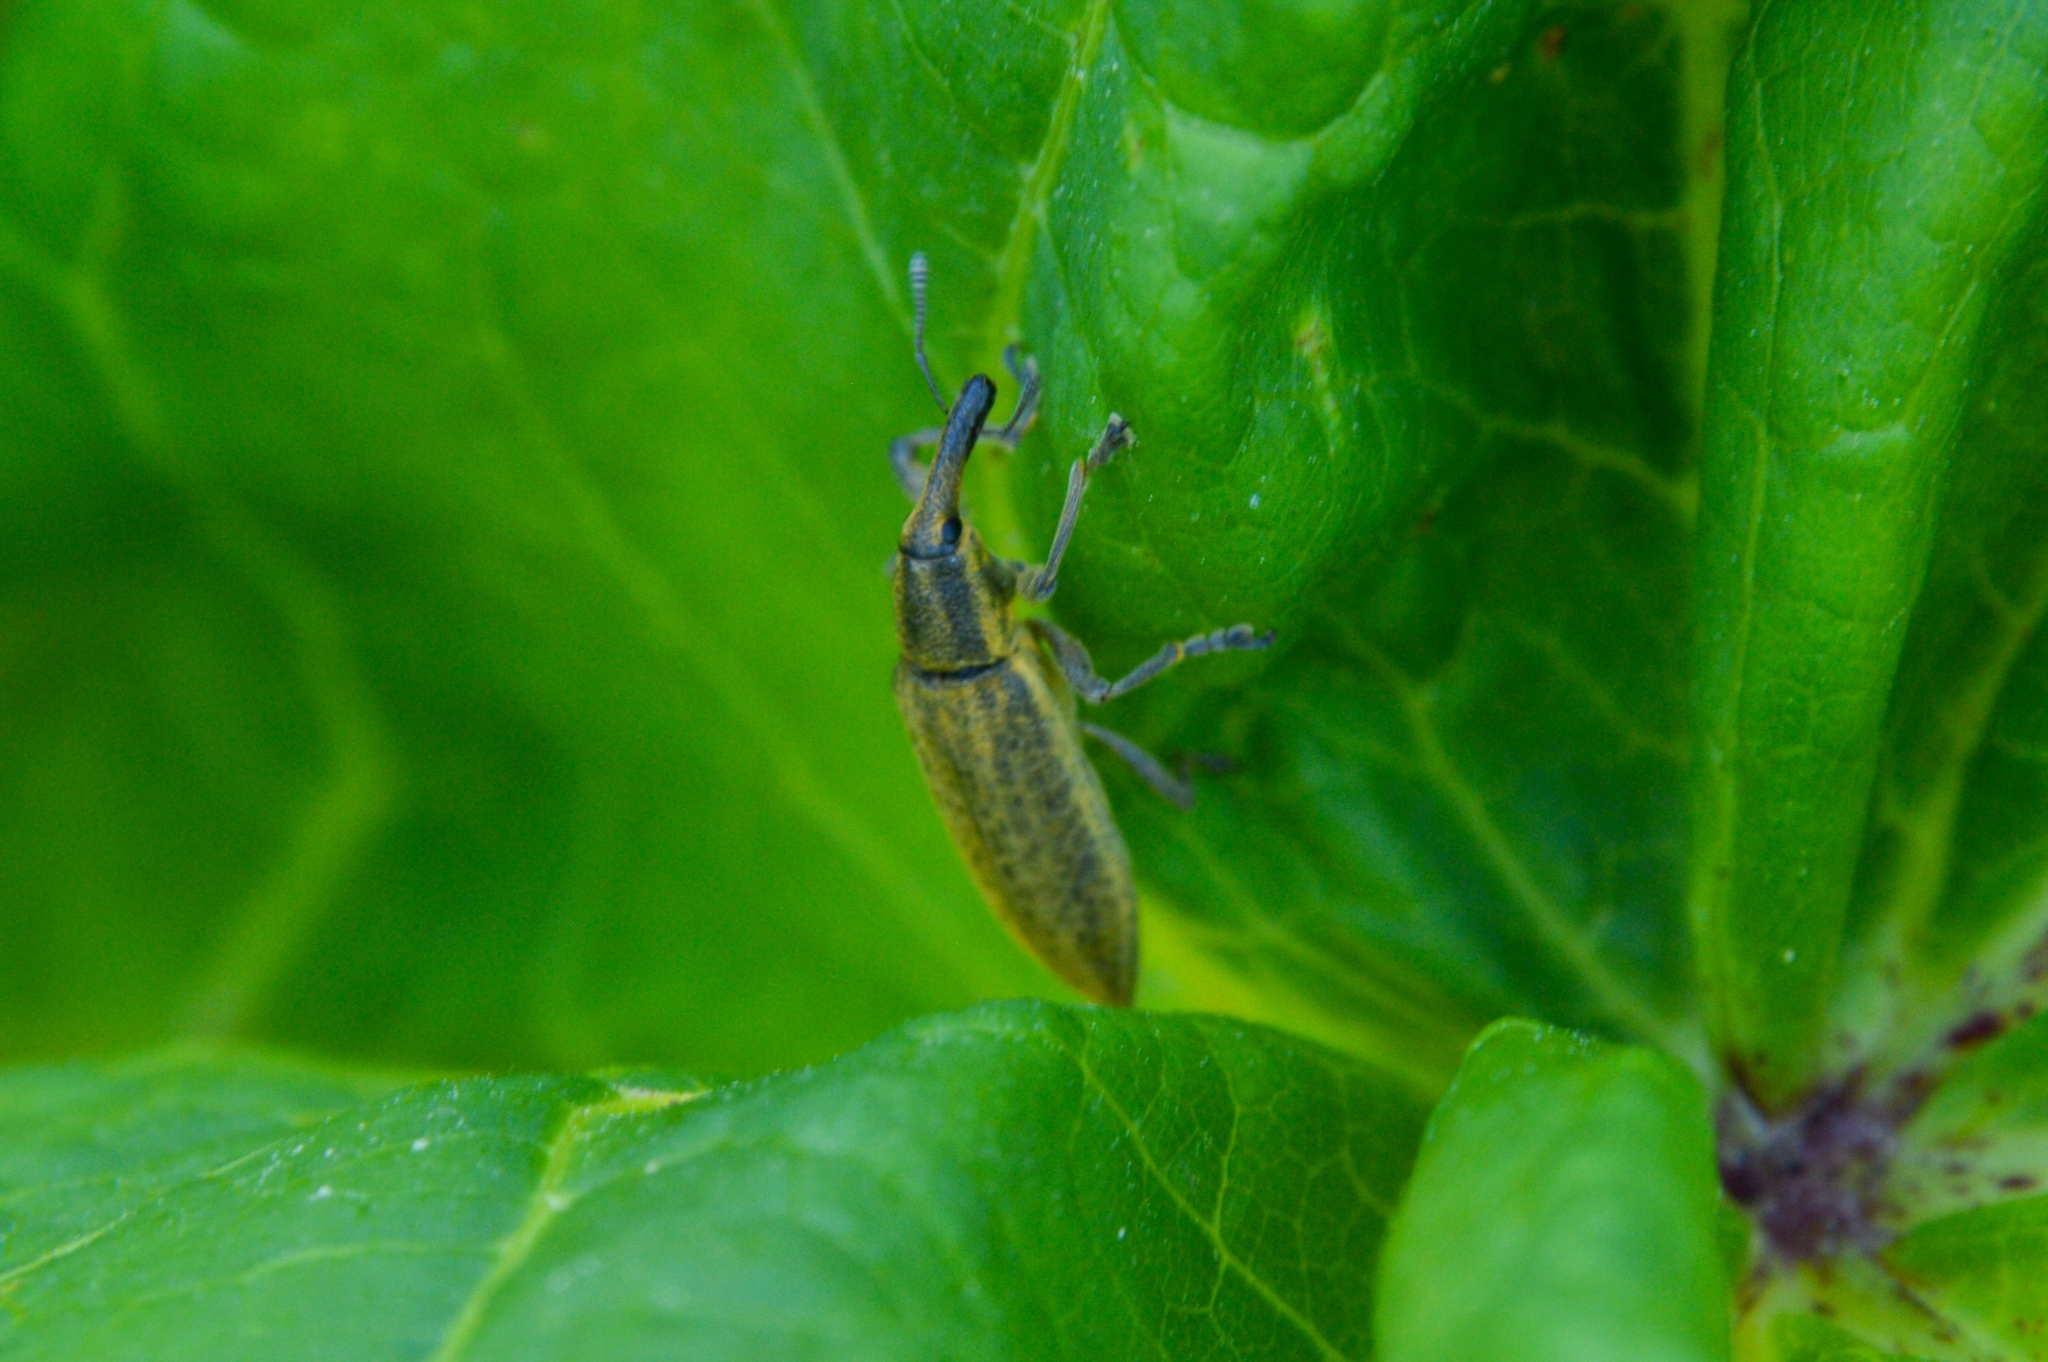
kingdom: Animalia
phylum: Arthropoda
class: Insecta
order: Coleoptera
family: Curculionidae
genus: Lixus
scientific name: Lixus iridis
